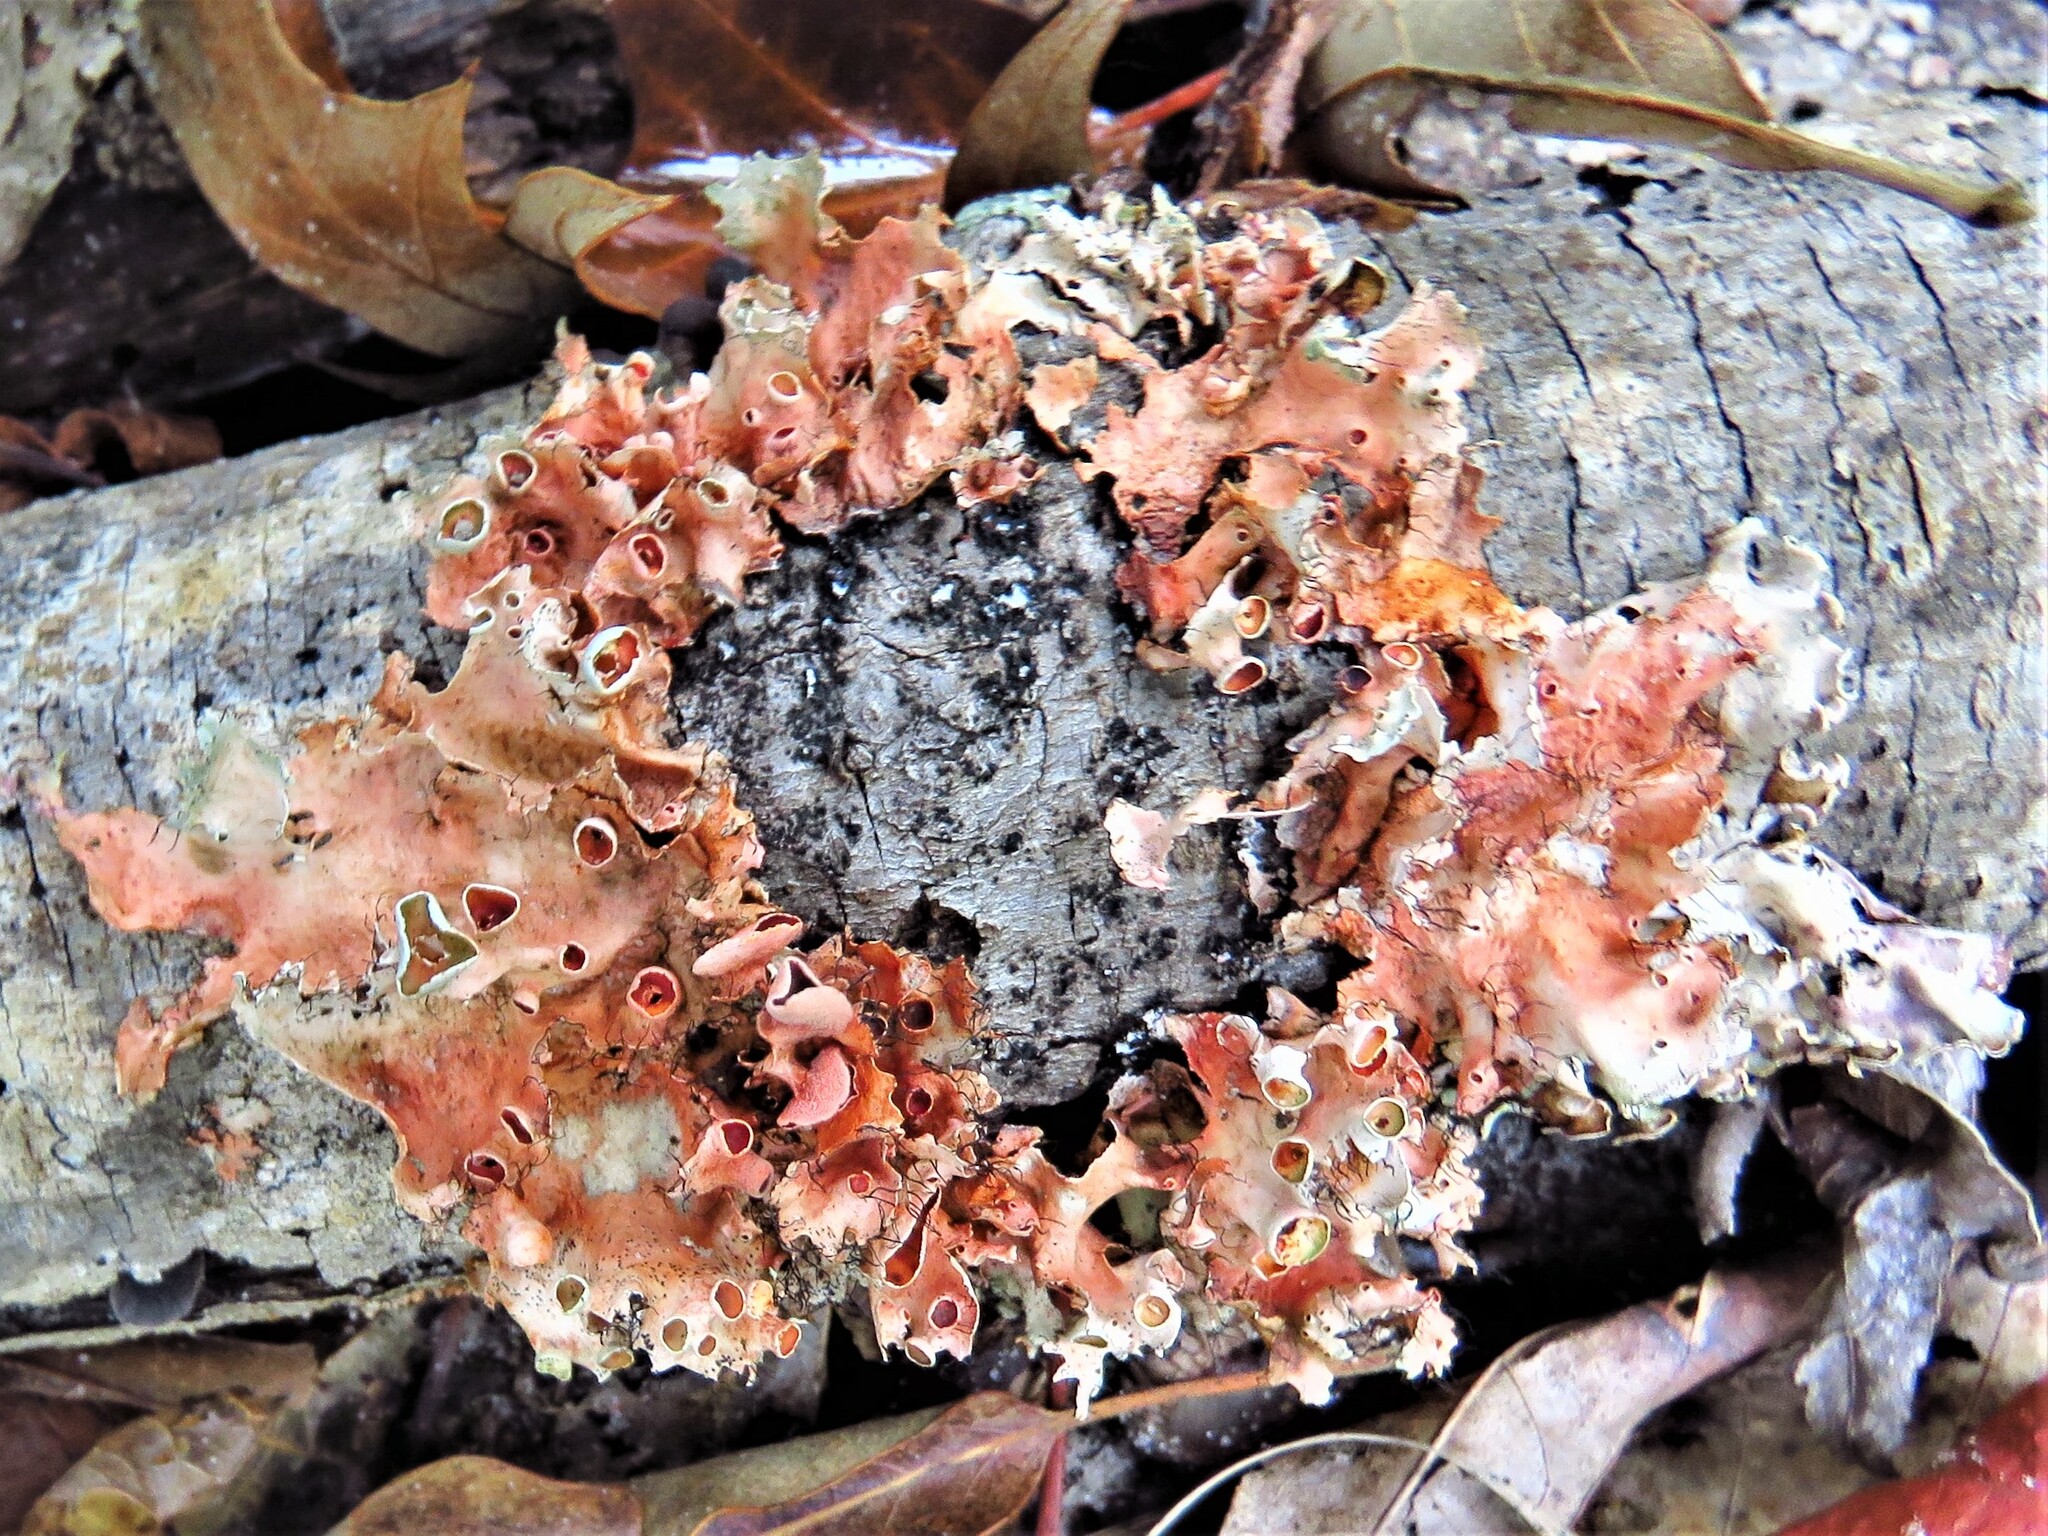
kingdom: Fungi
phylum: Ascomycota
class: Lecanoromycetes
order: Lecanorales
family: Parmeliaceae
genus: Parmotrema
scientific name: Parmotrema perforatum
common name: Perforated ruffle lichen
